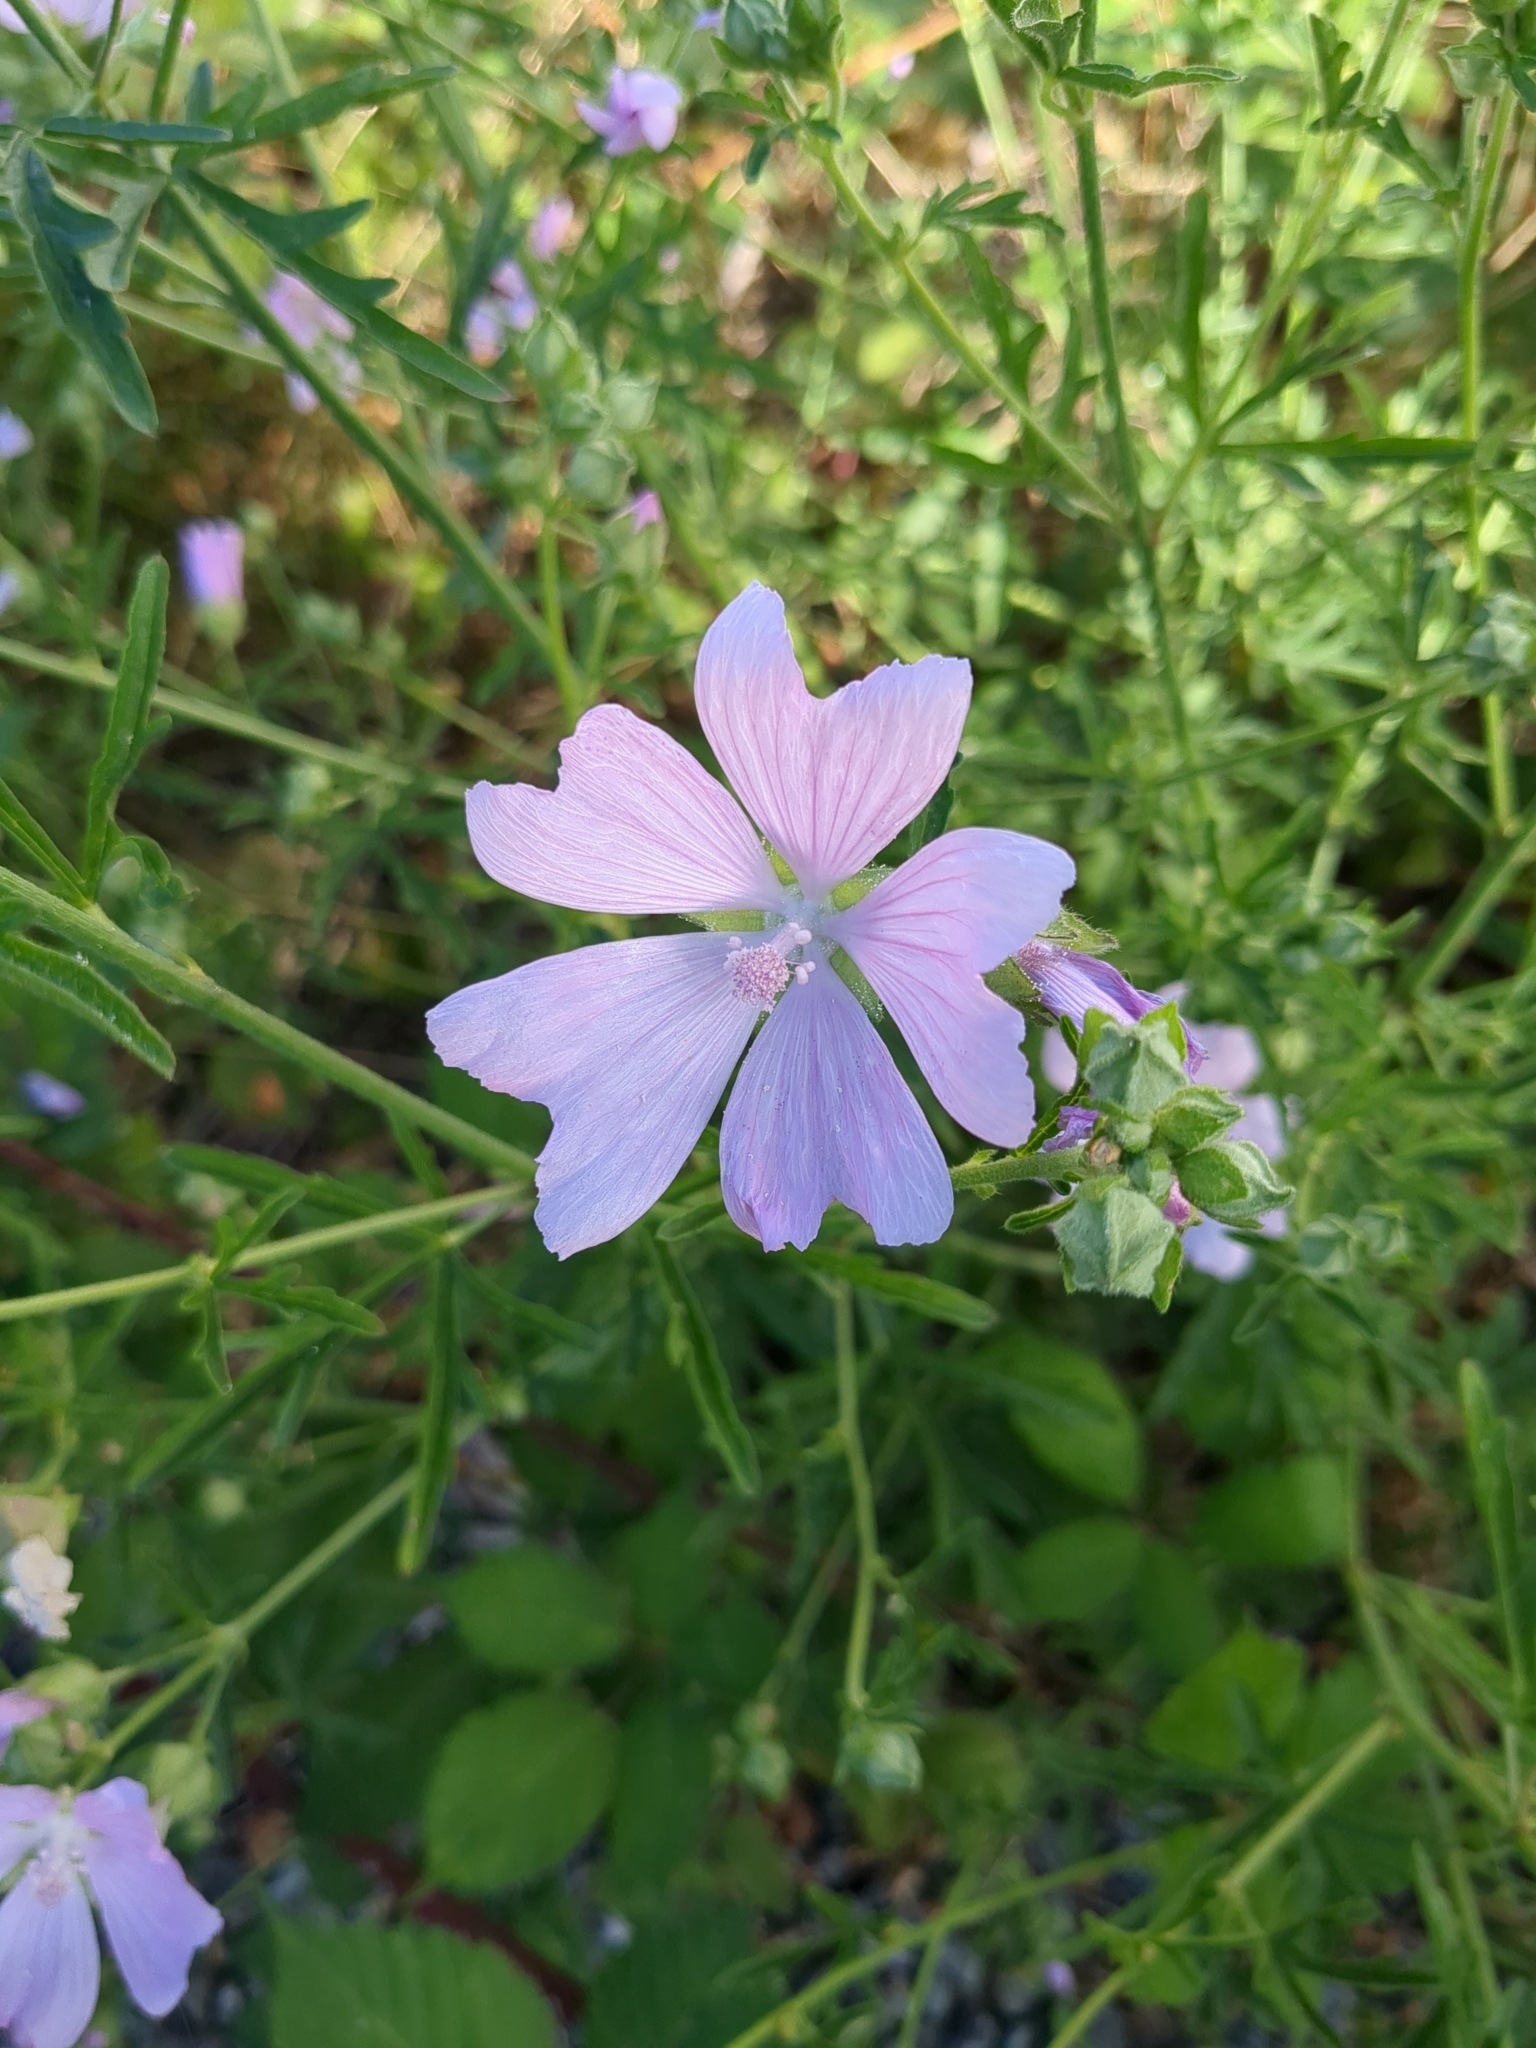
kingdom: Plantae
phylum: Tracheophyta
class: Magnoliopsida
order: Malvales
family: Malvaceae
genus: Malva
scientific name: Malva moschata
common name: Musk mallow
